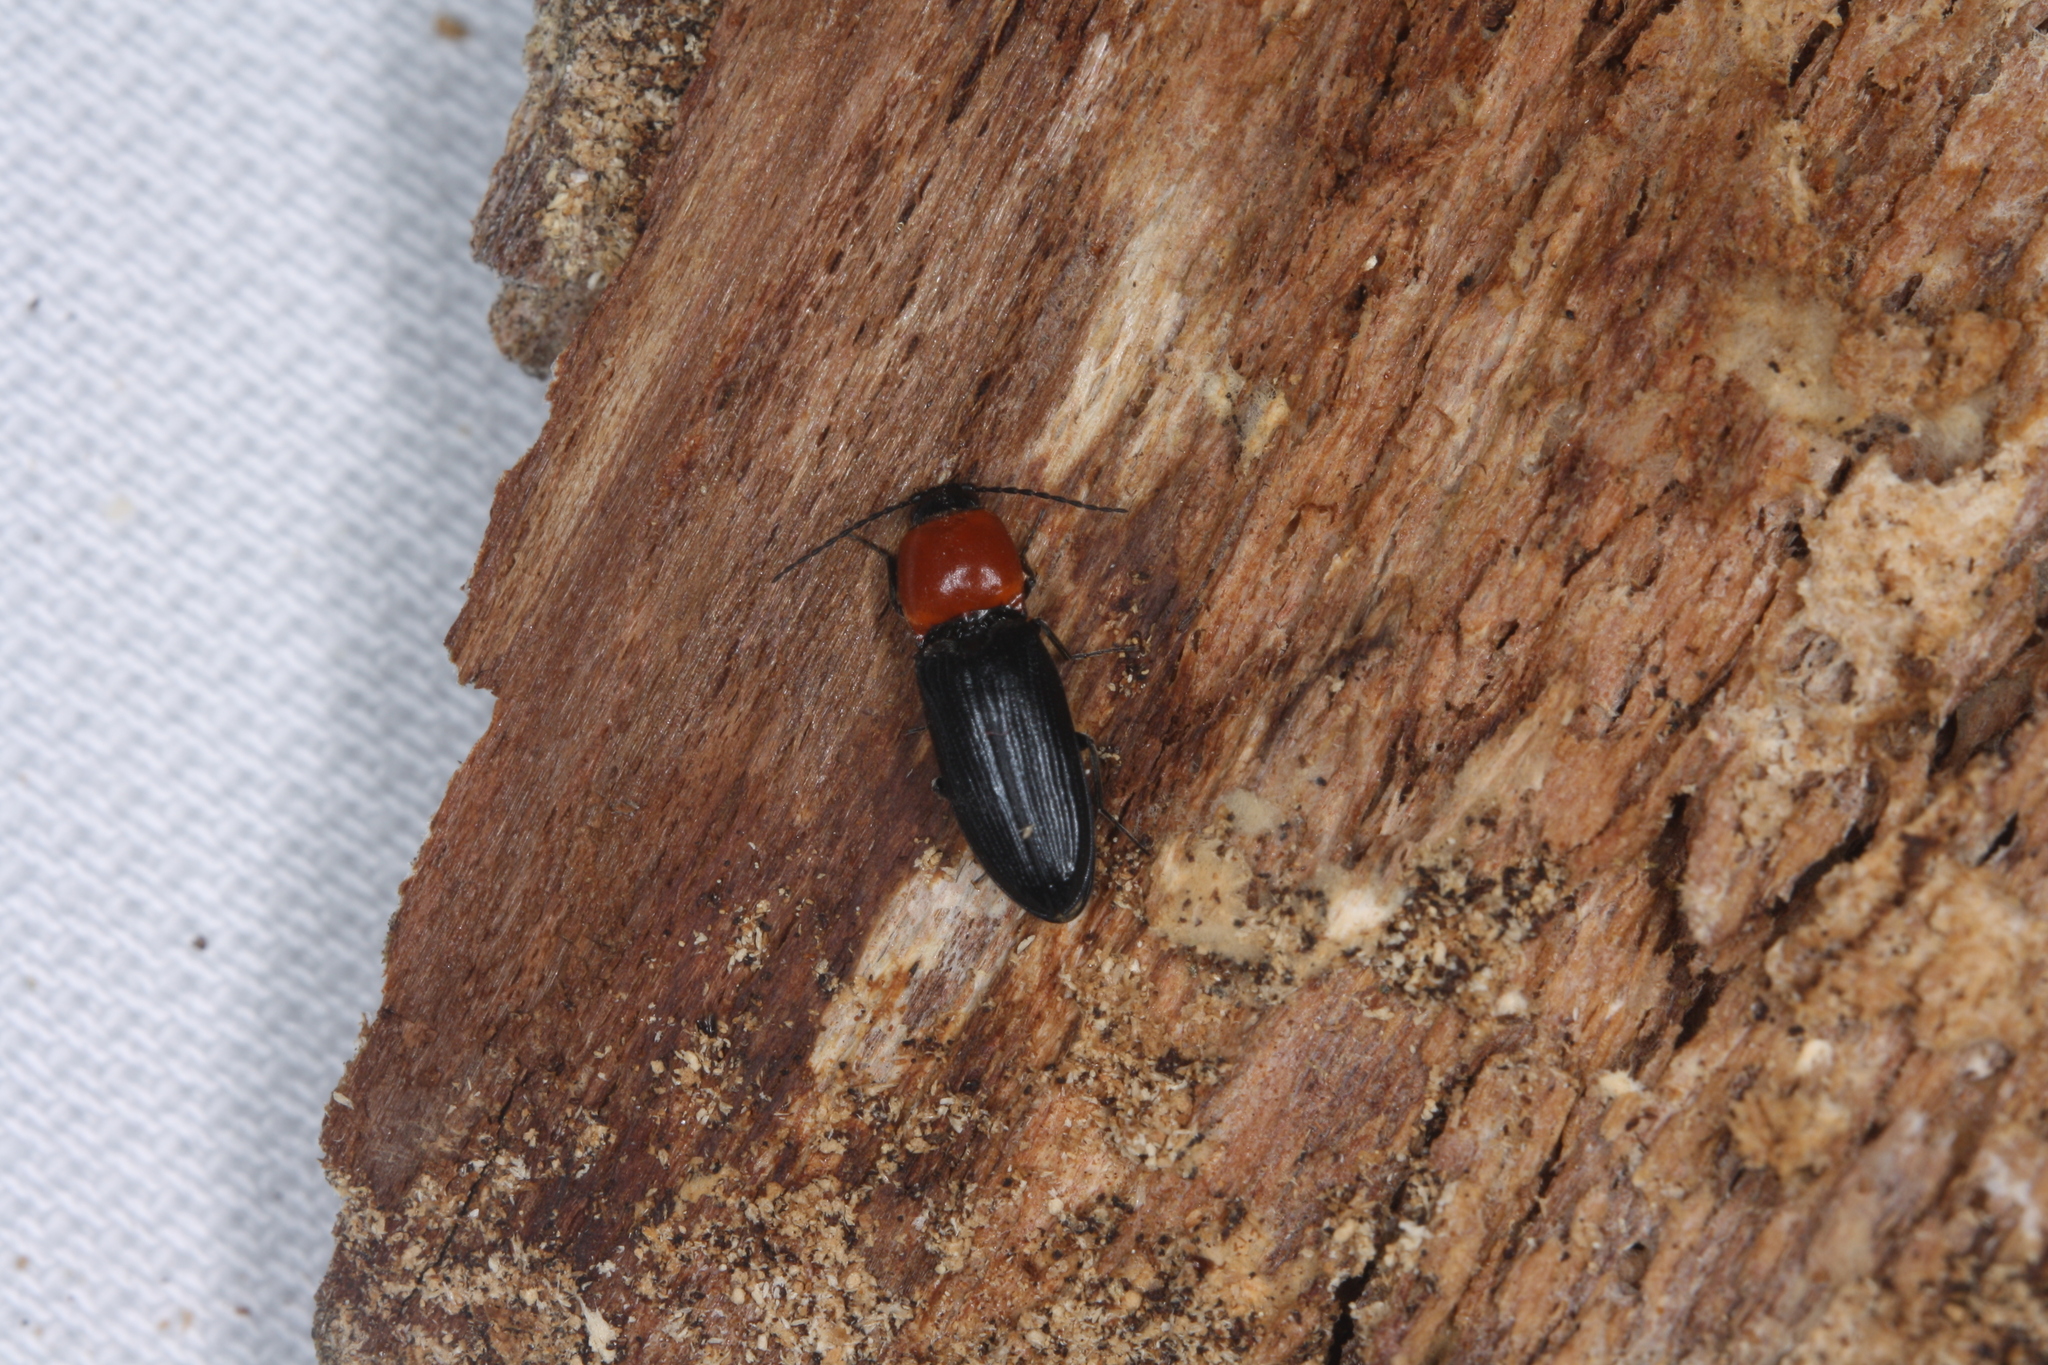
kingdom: Animalia
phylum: Arthropoda
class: Insecta
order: Coleoptera
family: Elateridae
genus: Cardiophorus
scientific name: Cardiophorus gramineus
